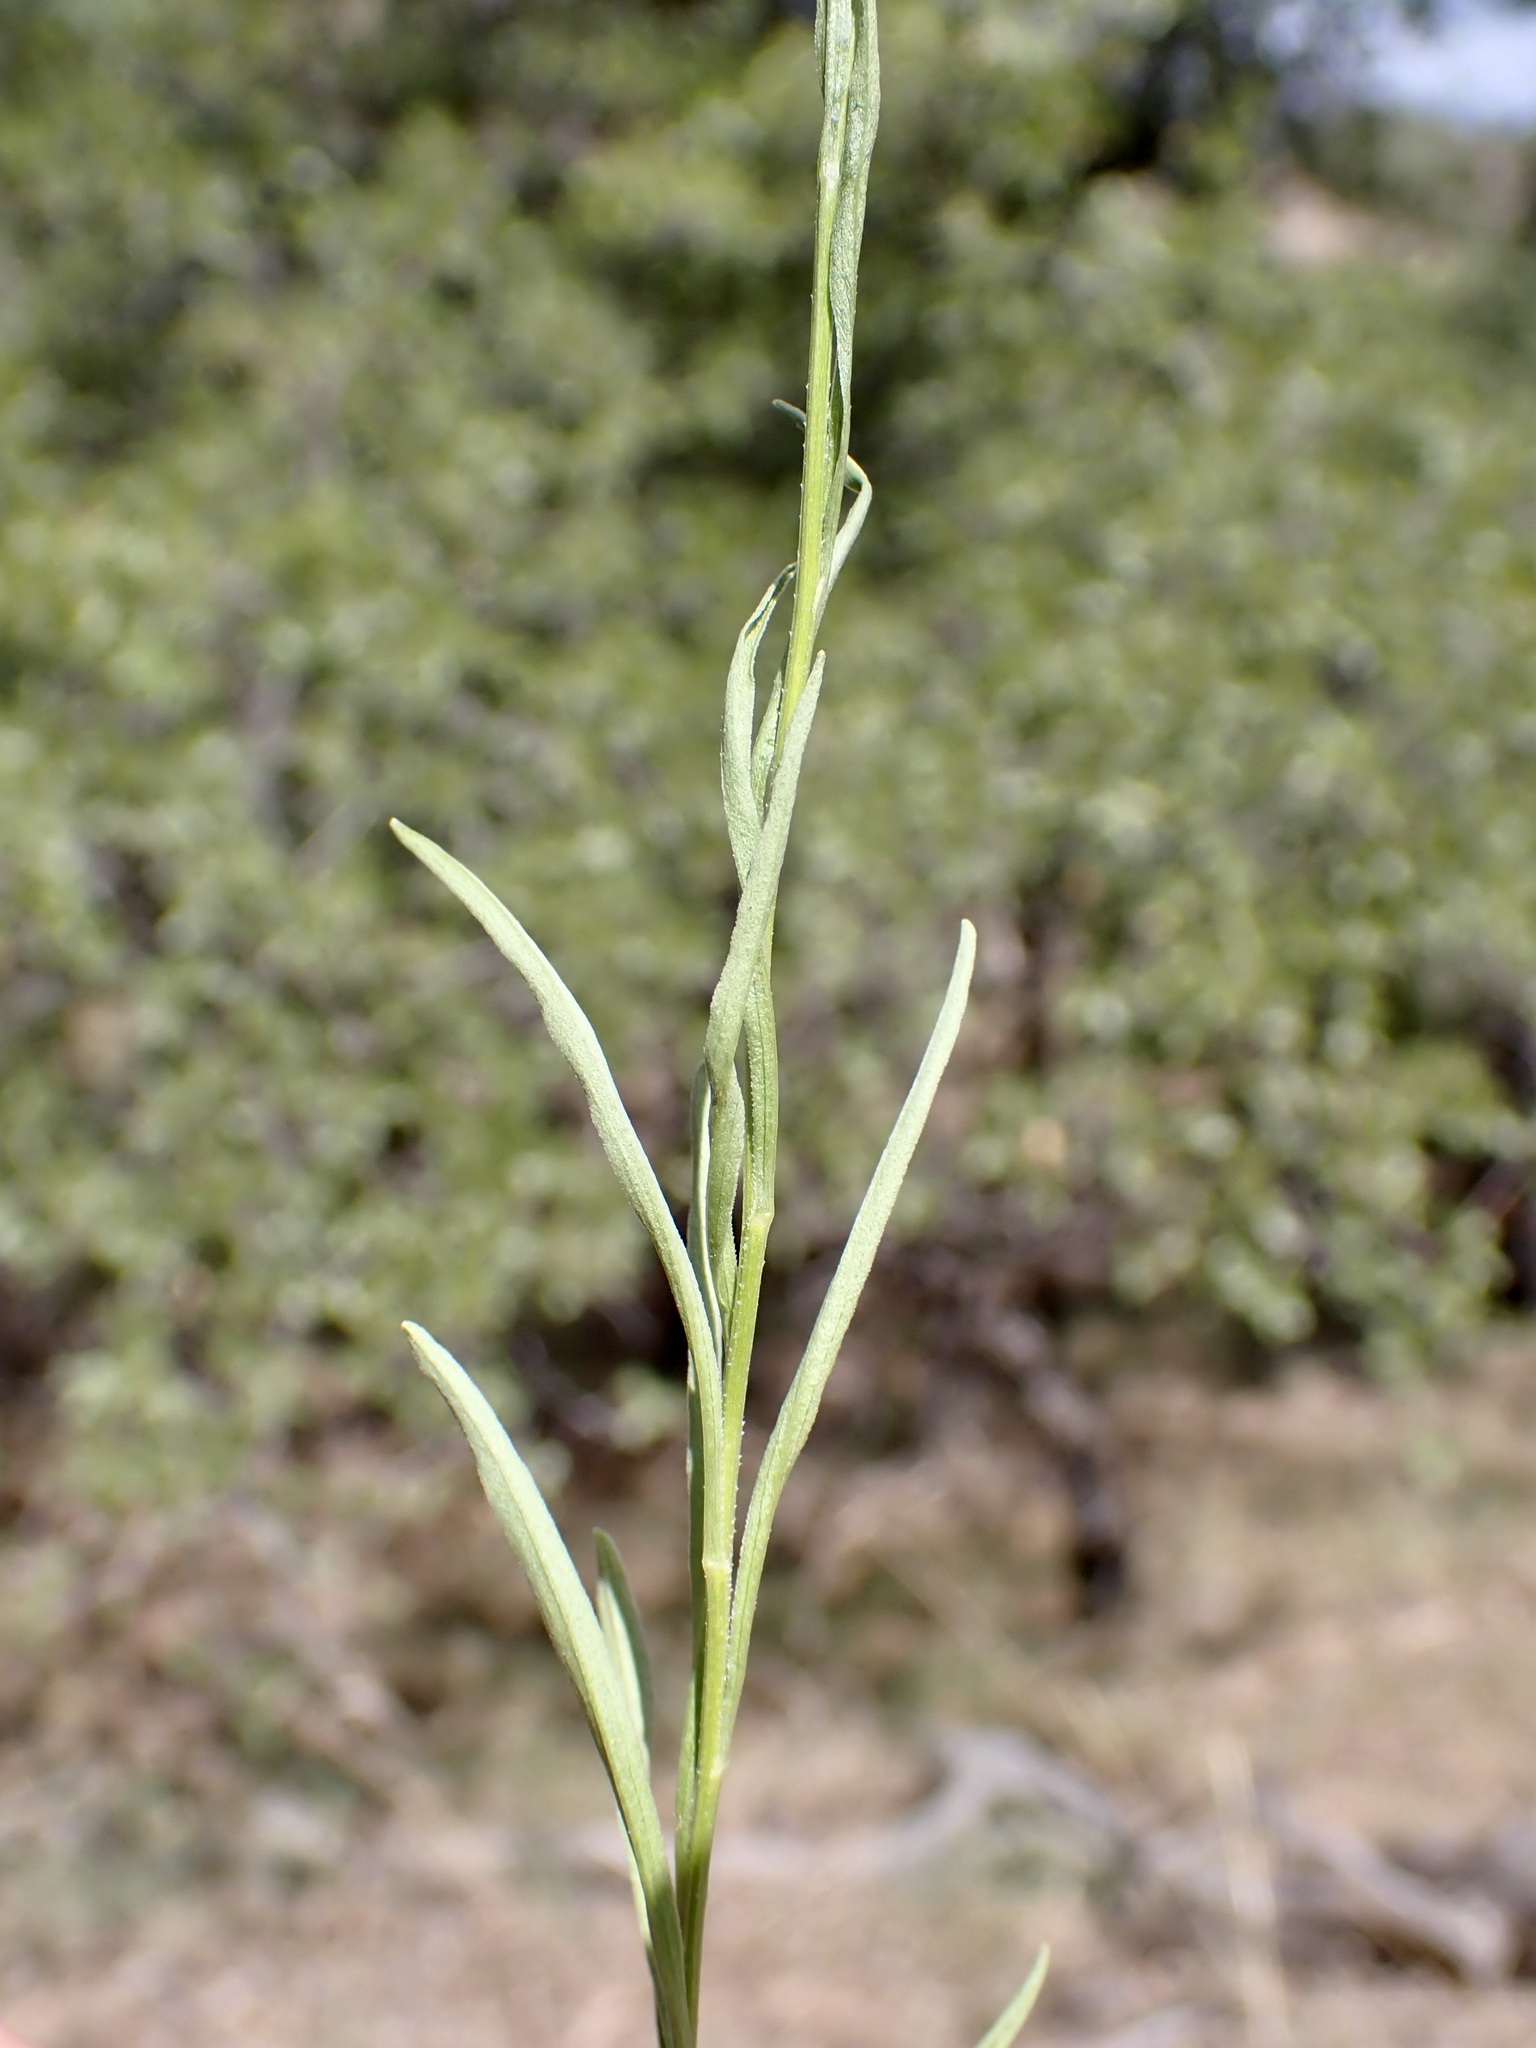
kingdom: Plantae
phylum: Tracheophyta
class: Magnoliopsida
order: Asterales
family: Asteraceae
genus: Gutierrezia
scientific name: Gutierrezia wrightii
